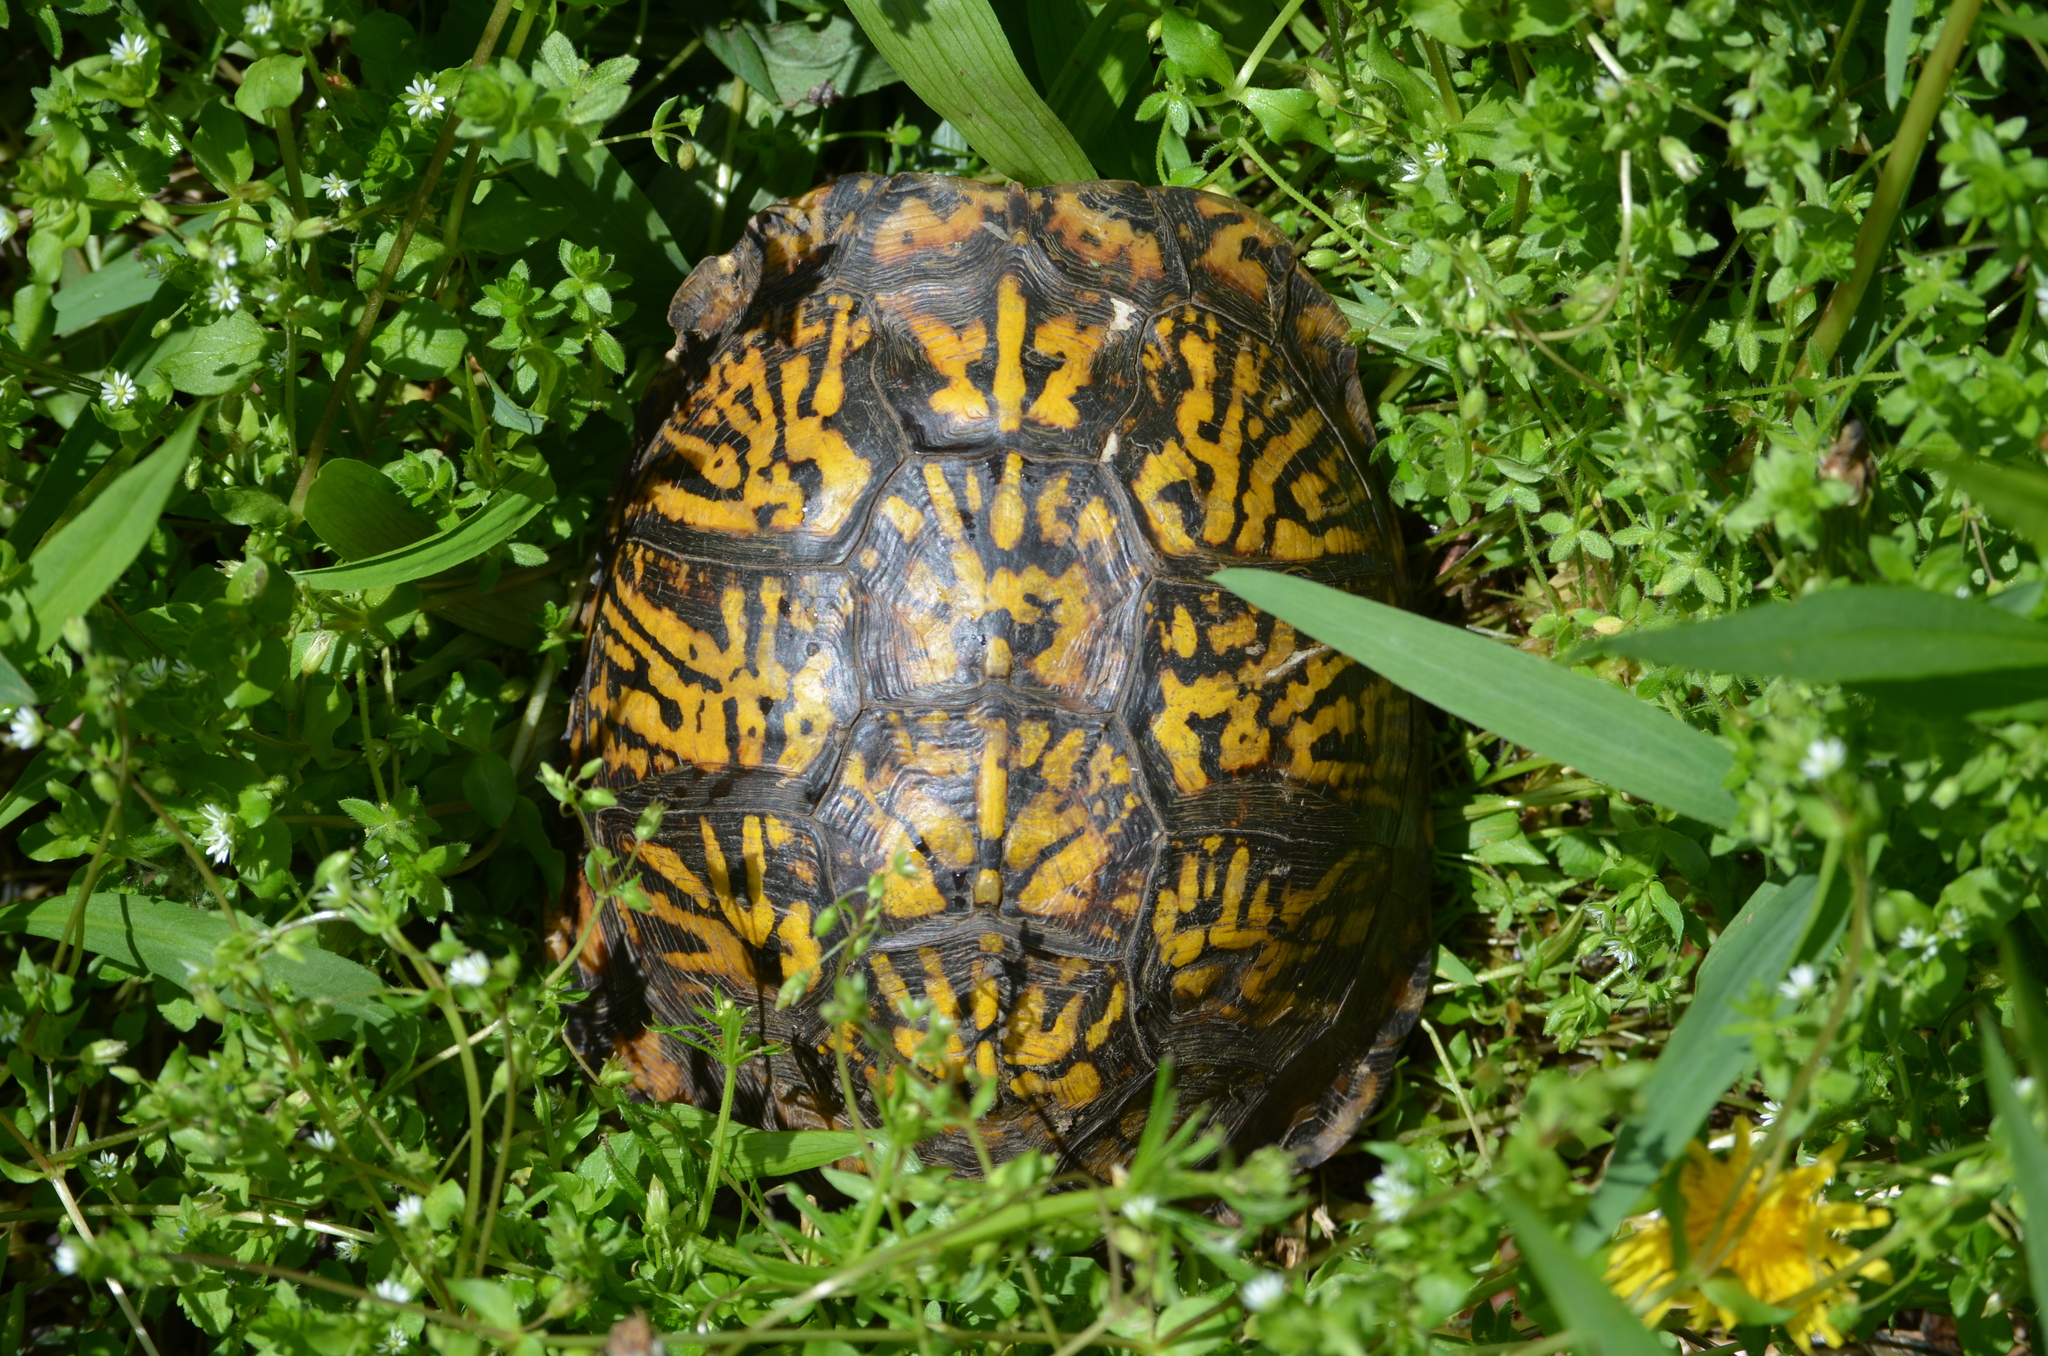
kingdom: Animalia
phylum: Chordata
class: Testudines
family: Emydidae
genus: Terrapene
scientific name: Terrapene carolina
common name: Common box turtle
